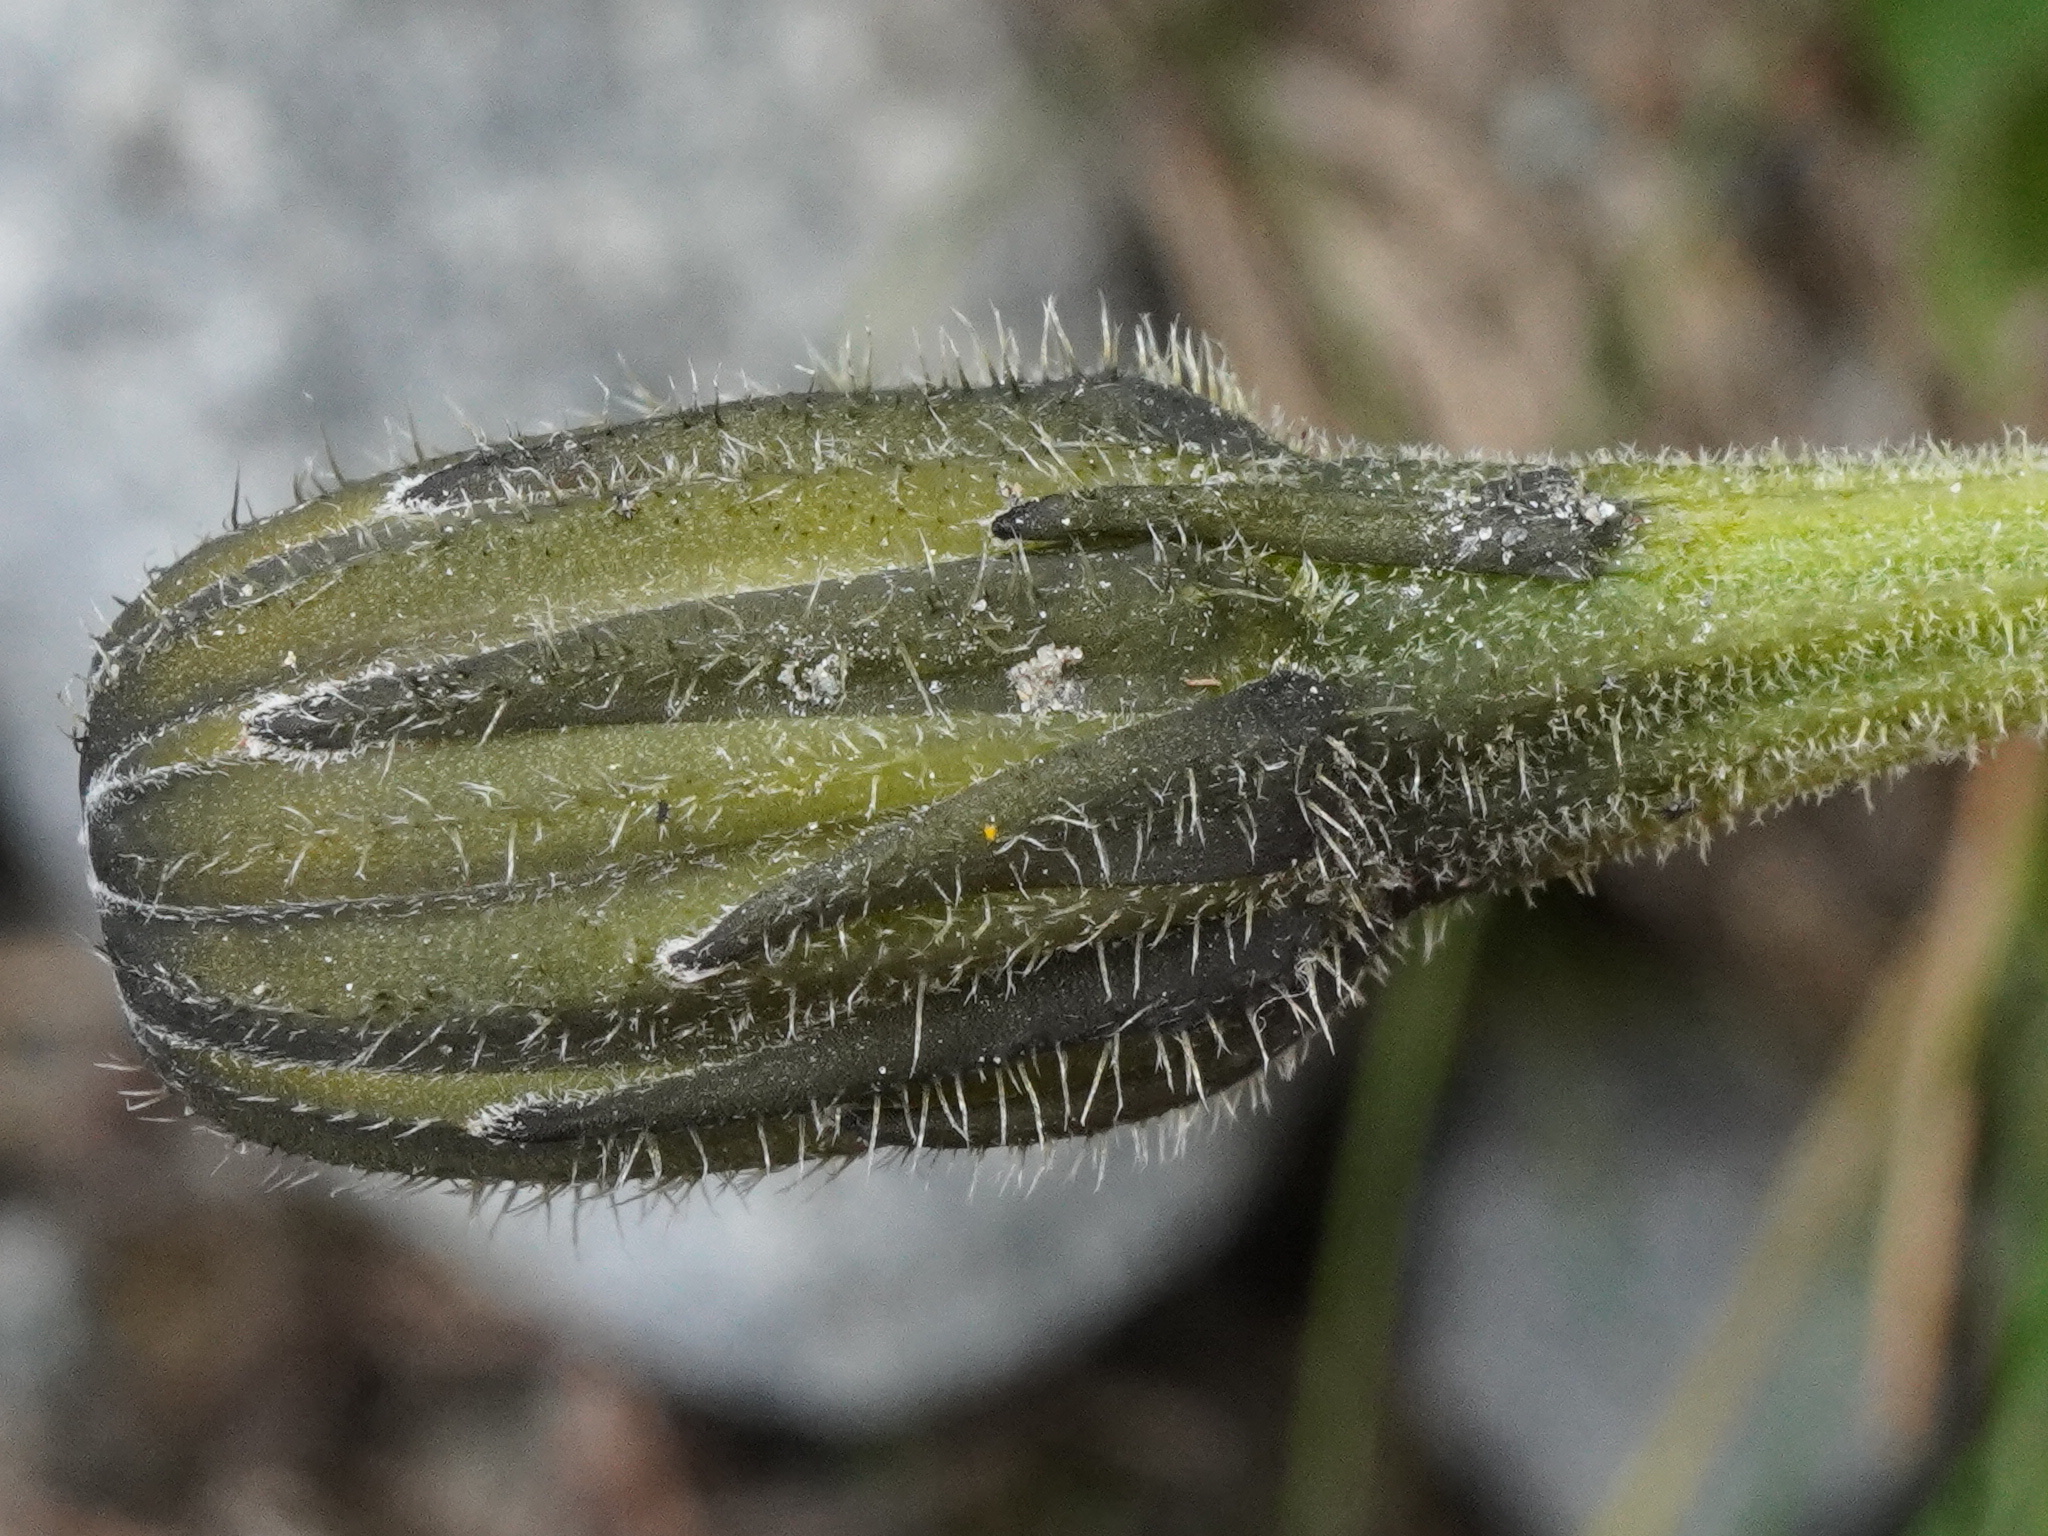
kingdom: Plantae
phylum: Tracheophyta
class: Magnoliopsida
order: Asterales
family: Asteraceae
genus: Leontodon
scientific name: Leontodon hispidus
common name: Rough hawkbit
